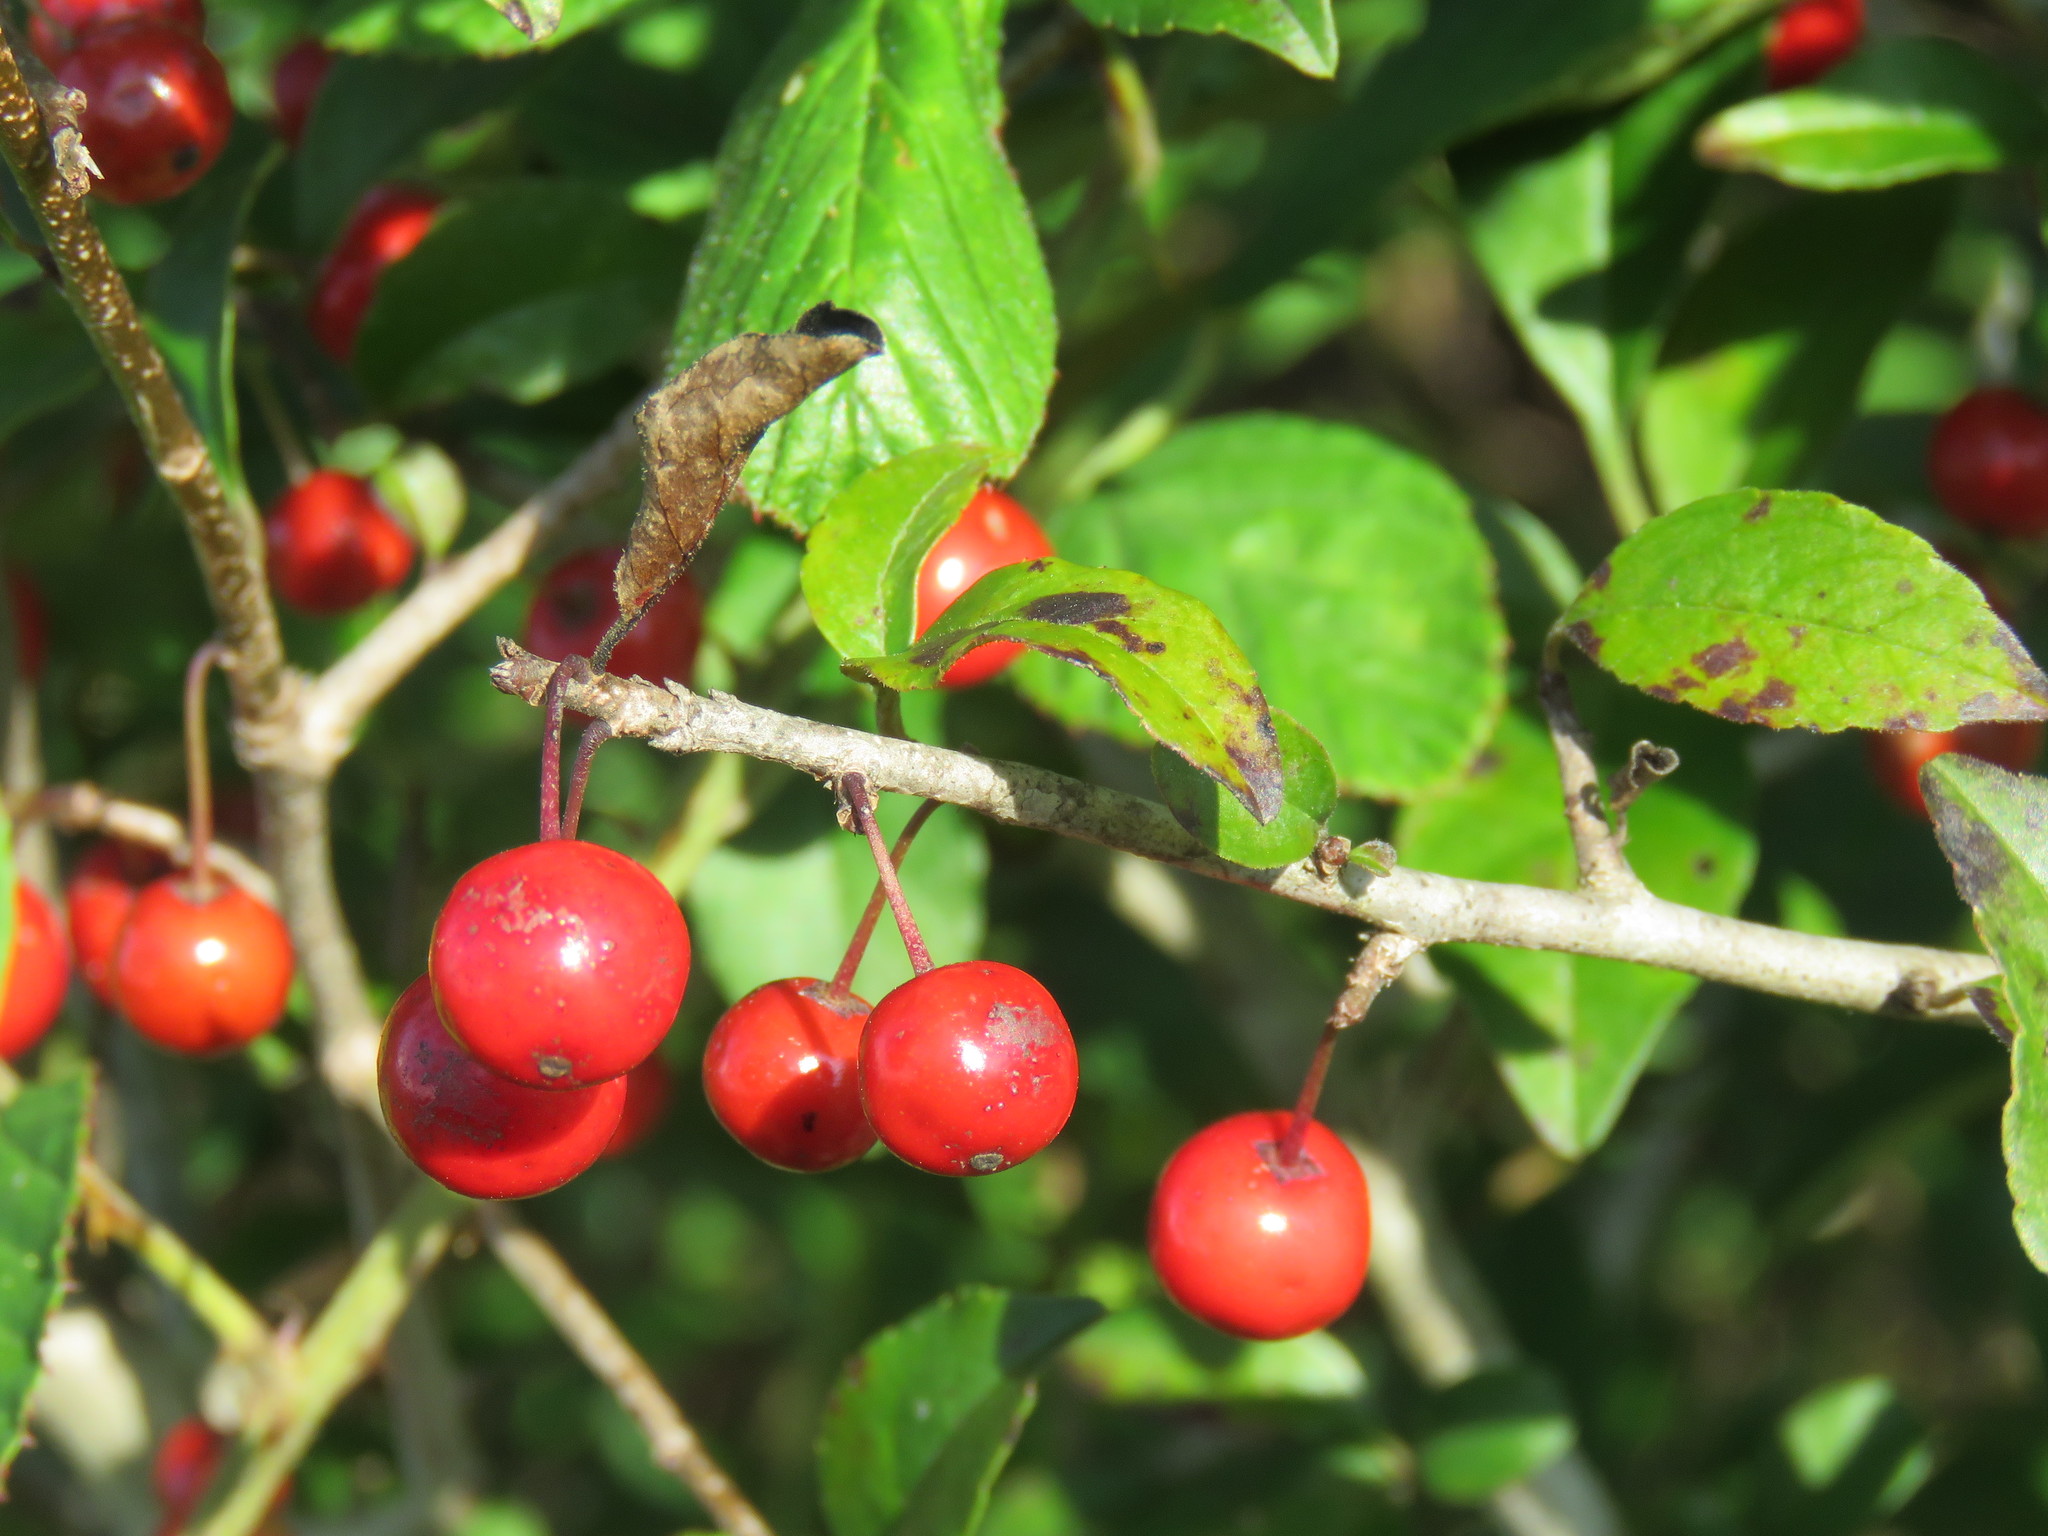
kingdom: Plantae
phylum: Tracheophyta
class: Magnoliopsida
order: Aquifoliales
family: Aquifoliaceae
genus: Ilex
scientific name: Ilex decidua
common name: Possum-haw
